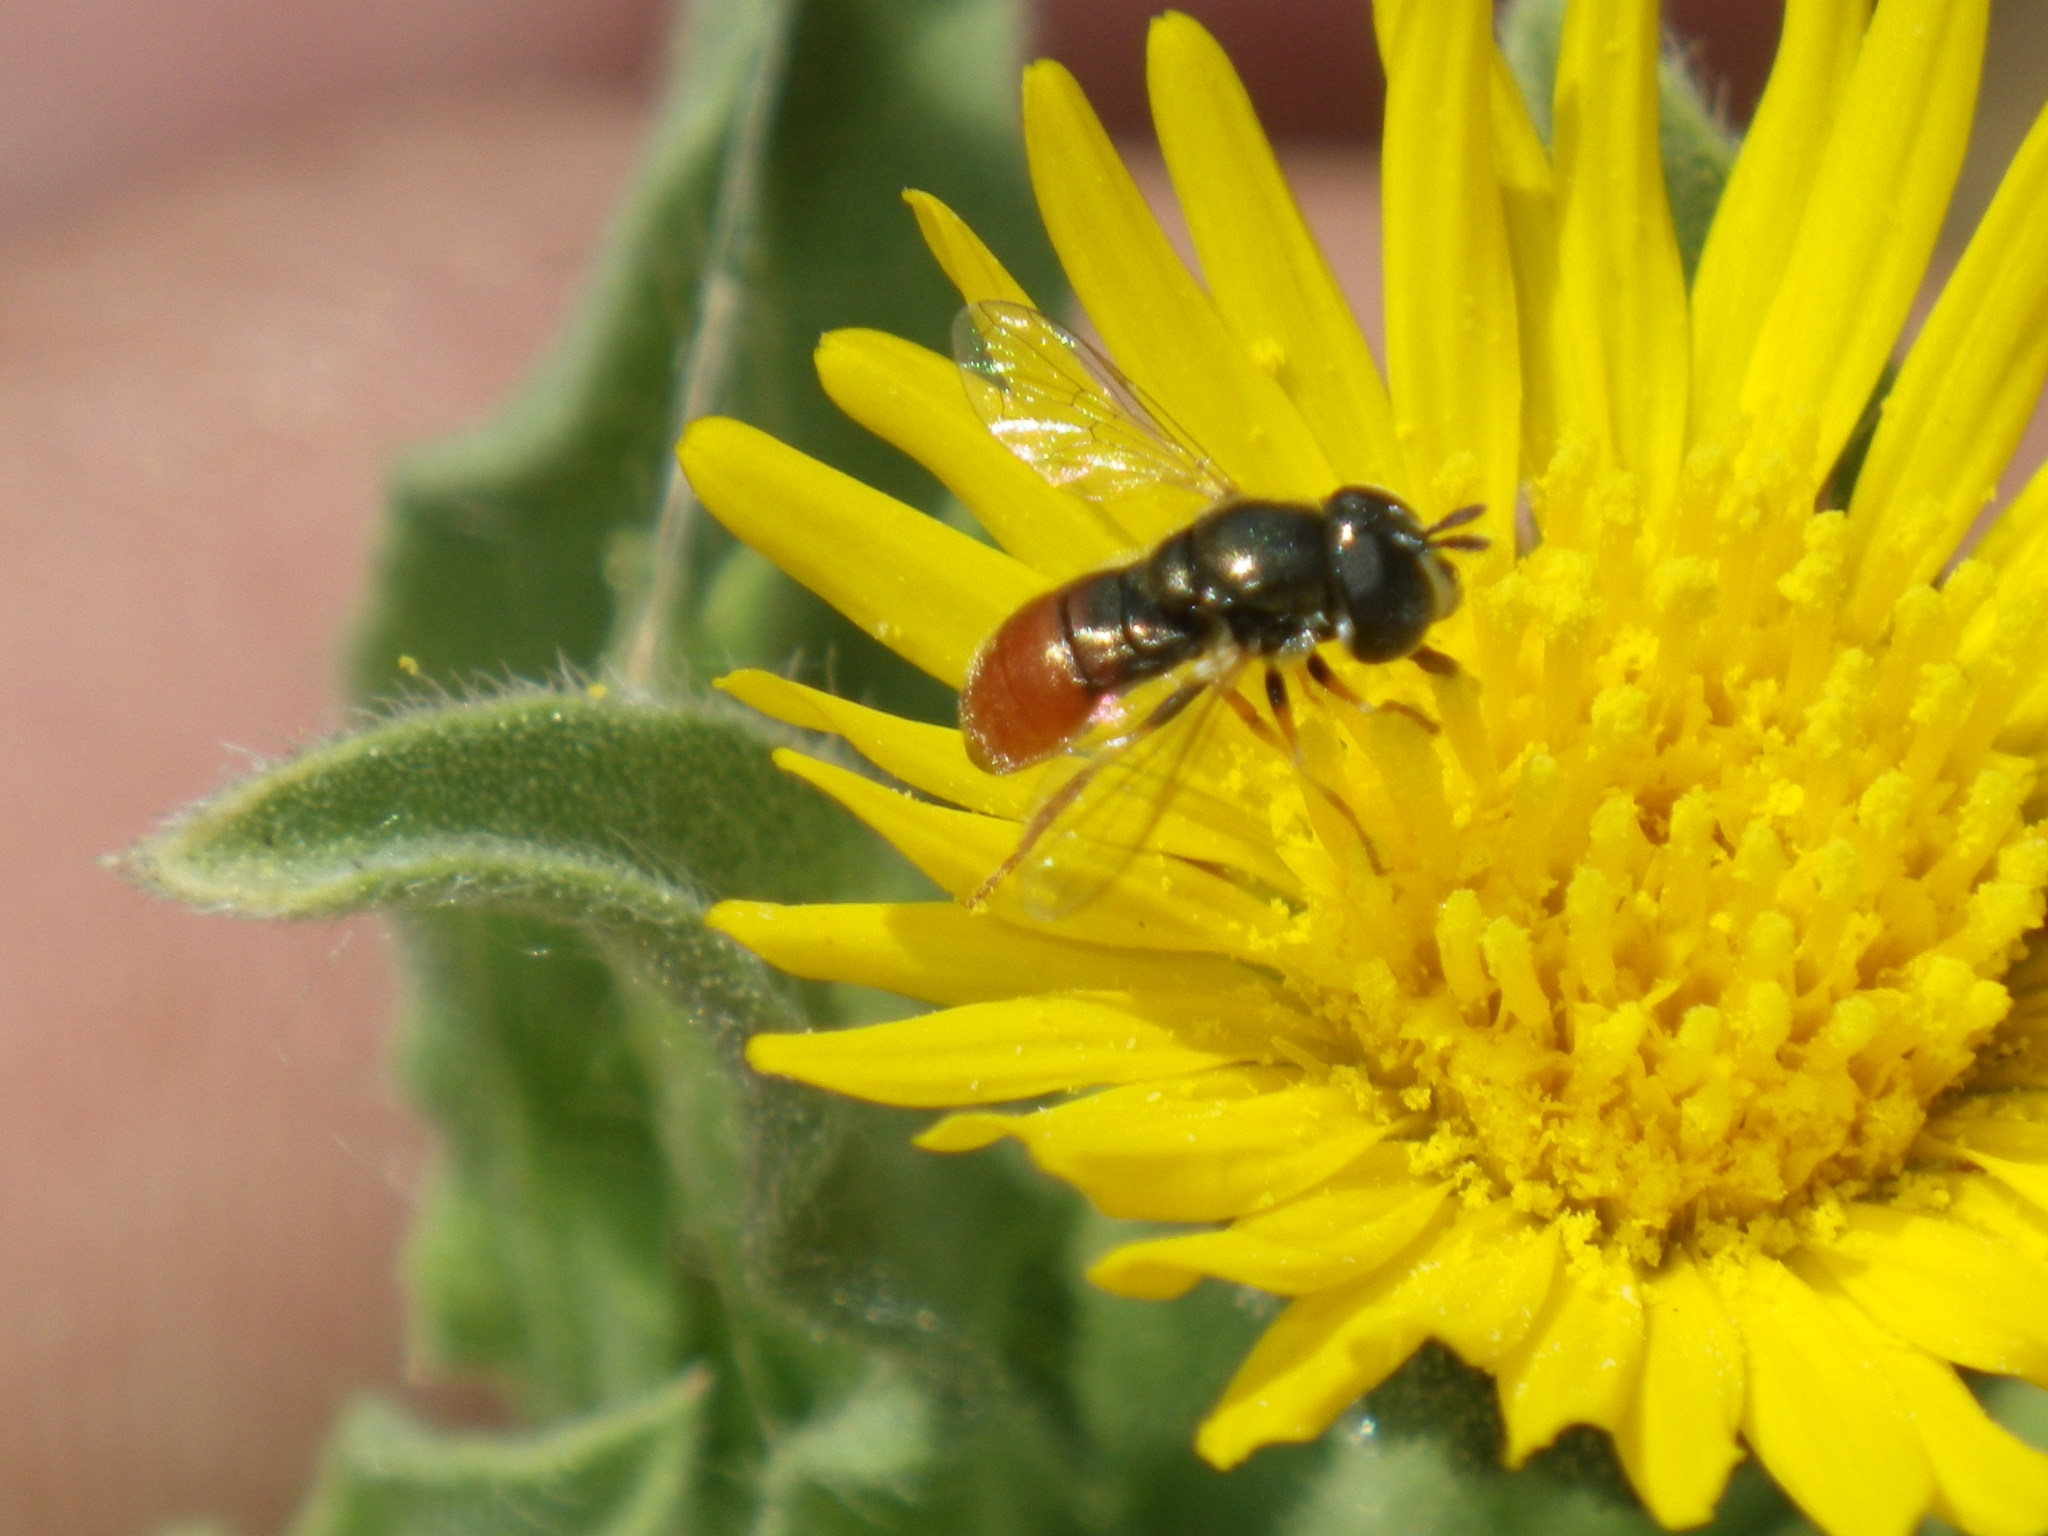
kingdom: Animalia
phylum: Arthropoda
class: Insecta
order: Diptera
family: Syrphidae
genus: Paragus
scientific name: Paragus haemorrhous
